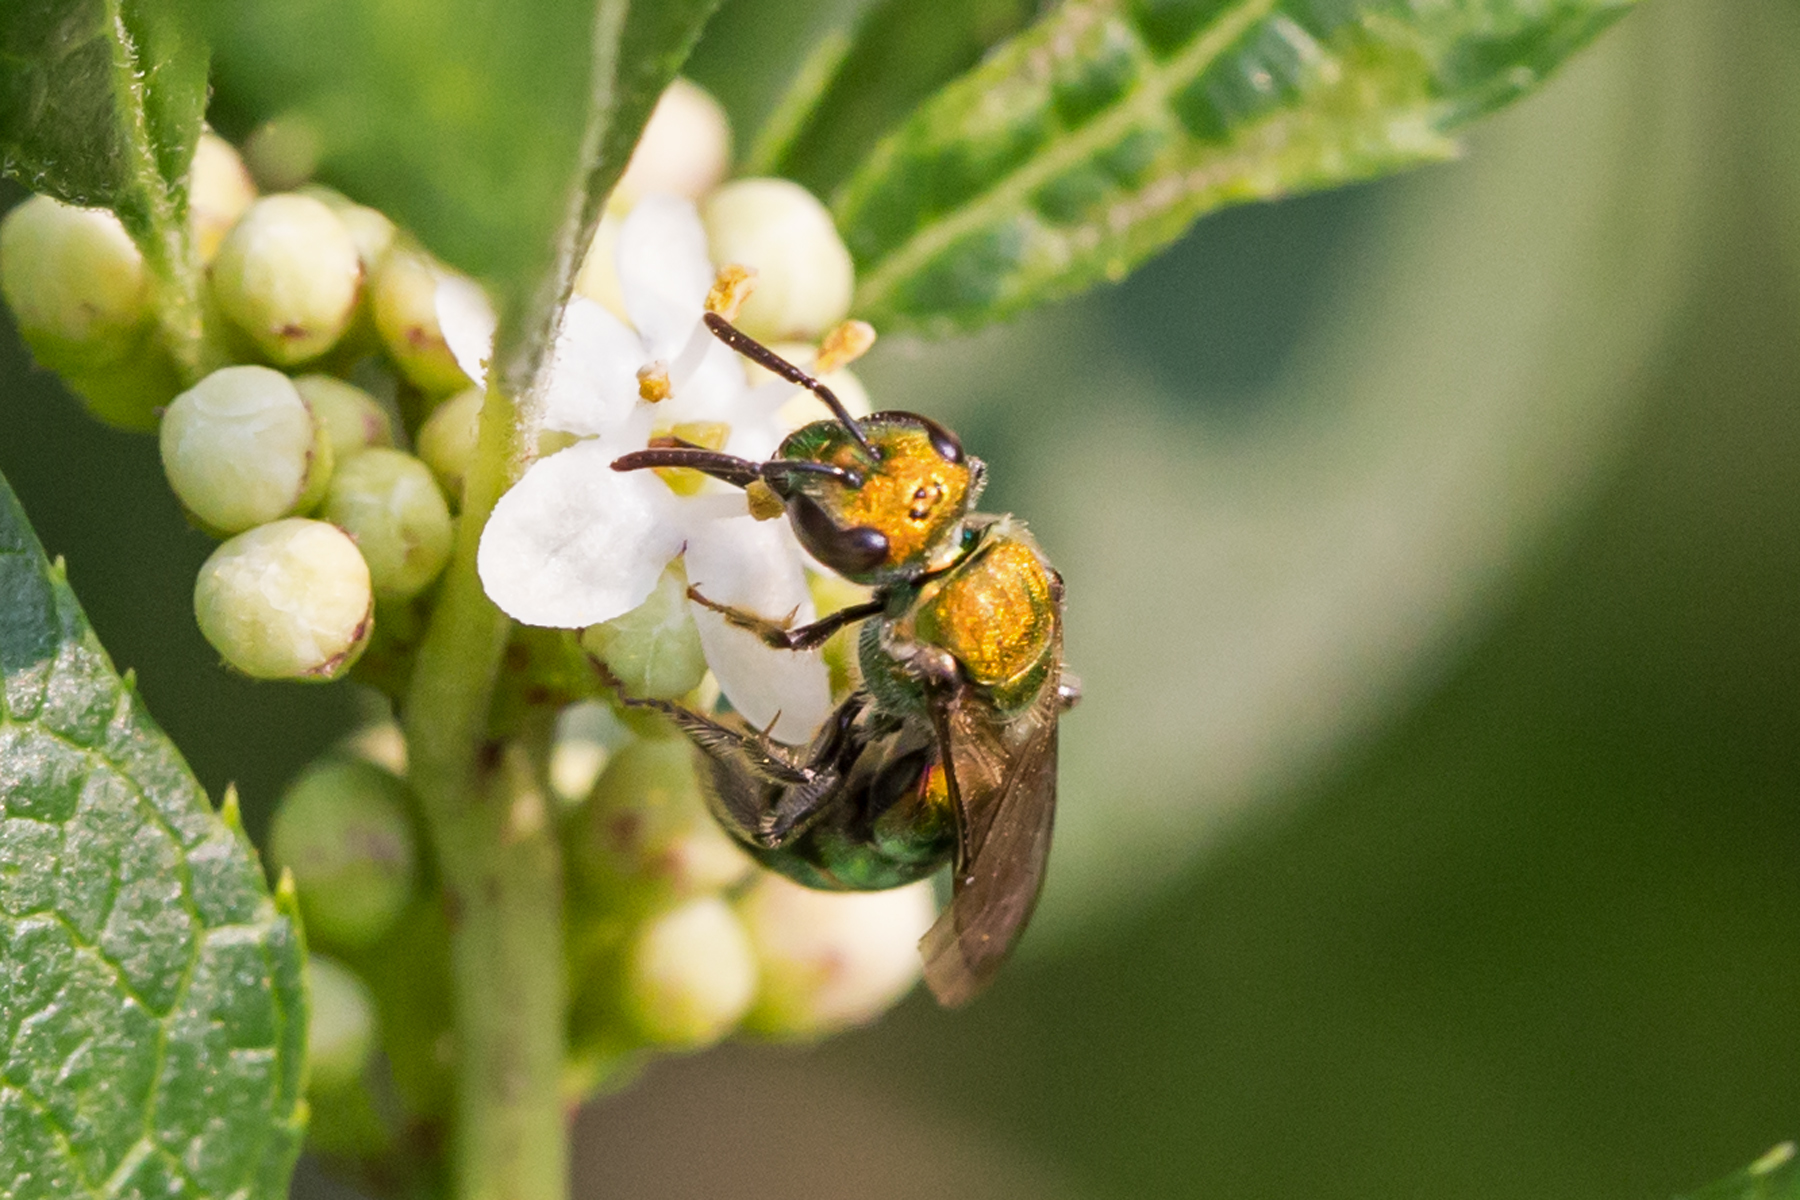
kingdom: Animalia
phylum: Arthropoda
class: Insecta
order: Hymenoptera
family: Halictidae
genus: Augochlora
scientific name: Augochlora pura
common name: Pure green sweat bee
